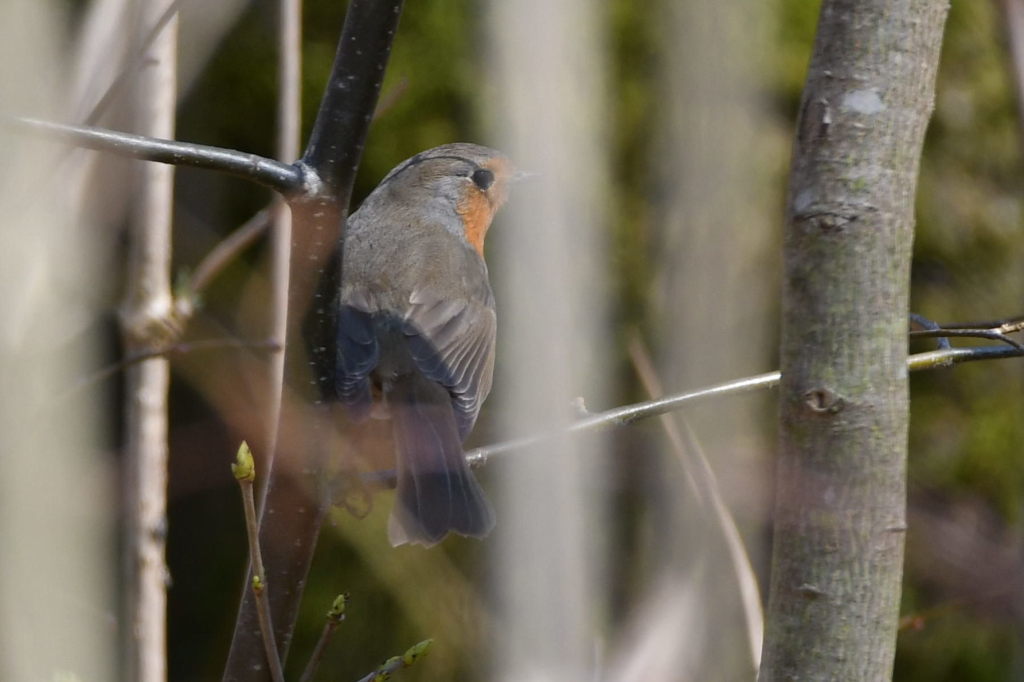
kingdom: Animalia
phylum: Chordata
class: Aves
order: Passeriformes
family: Muscicapidae
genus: Erithacus
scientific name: Erithacus rubecula
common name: European robin
